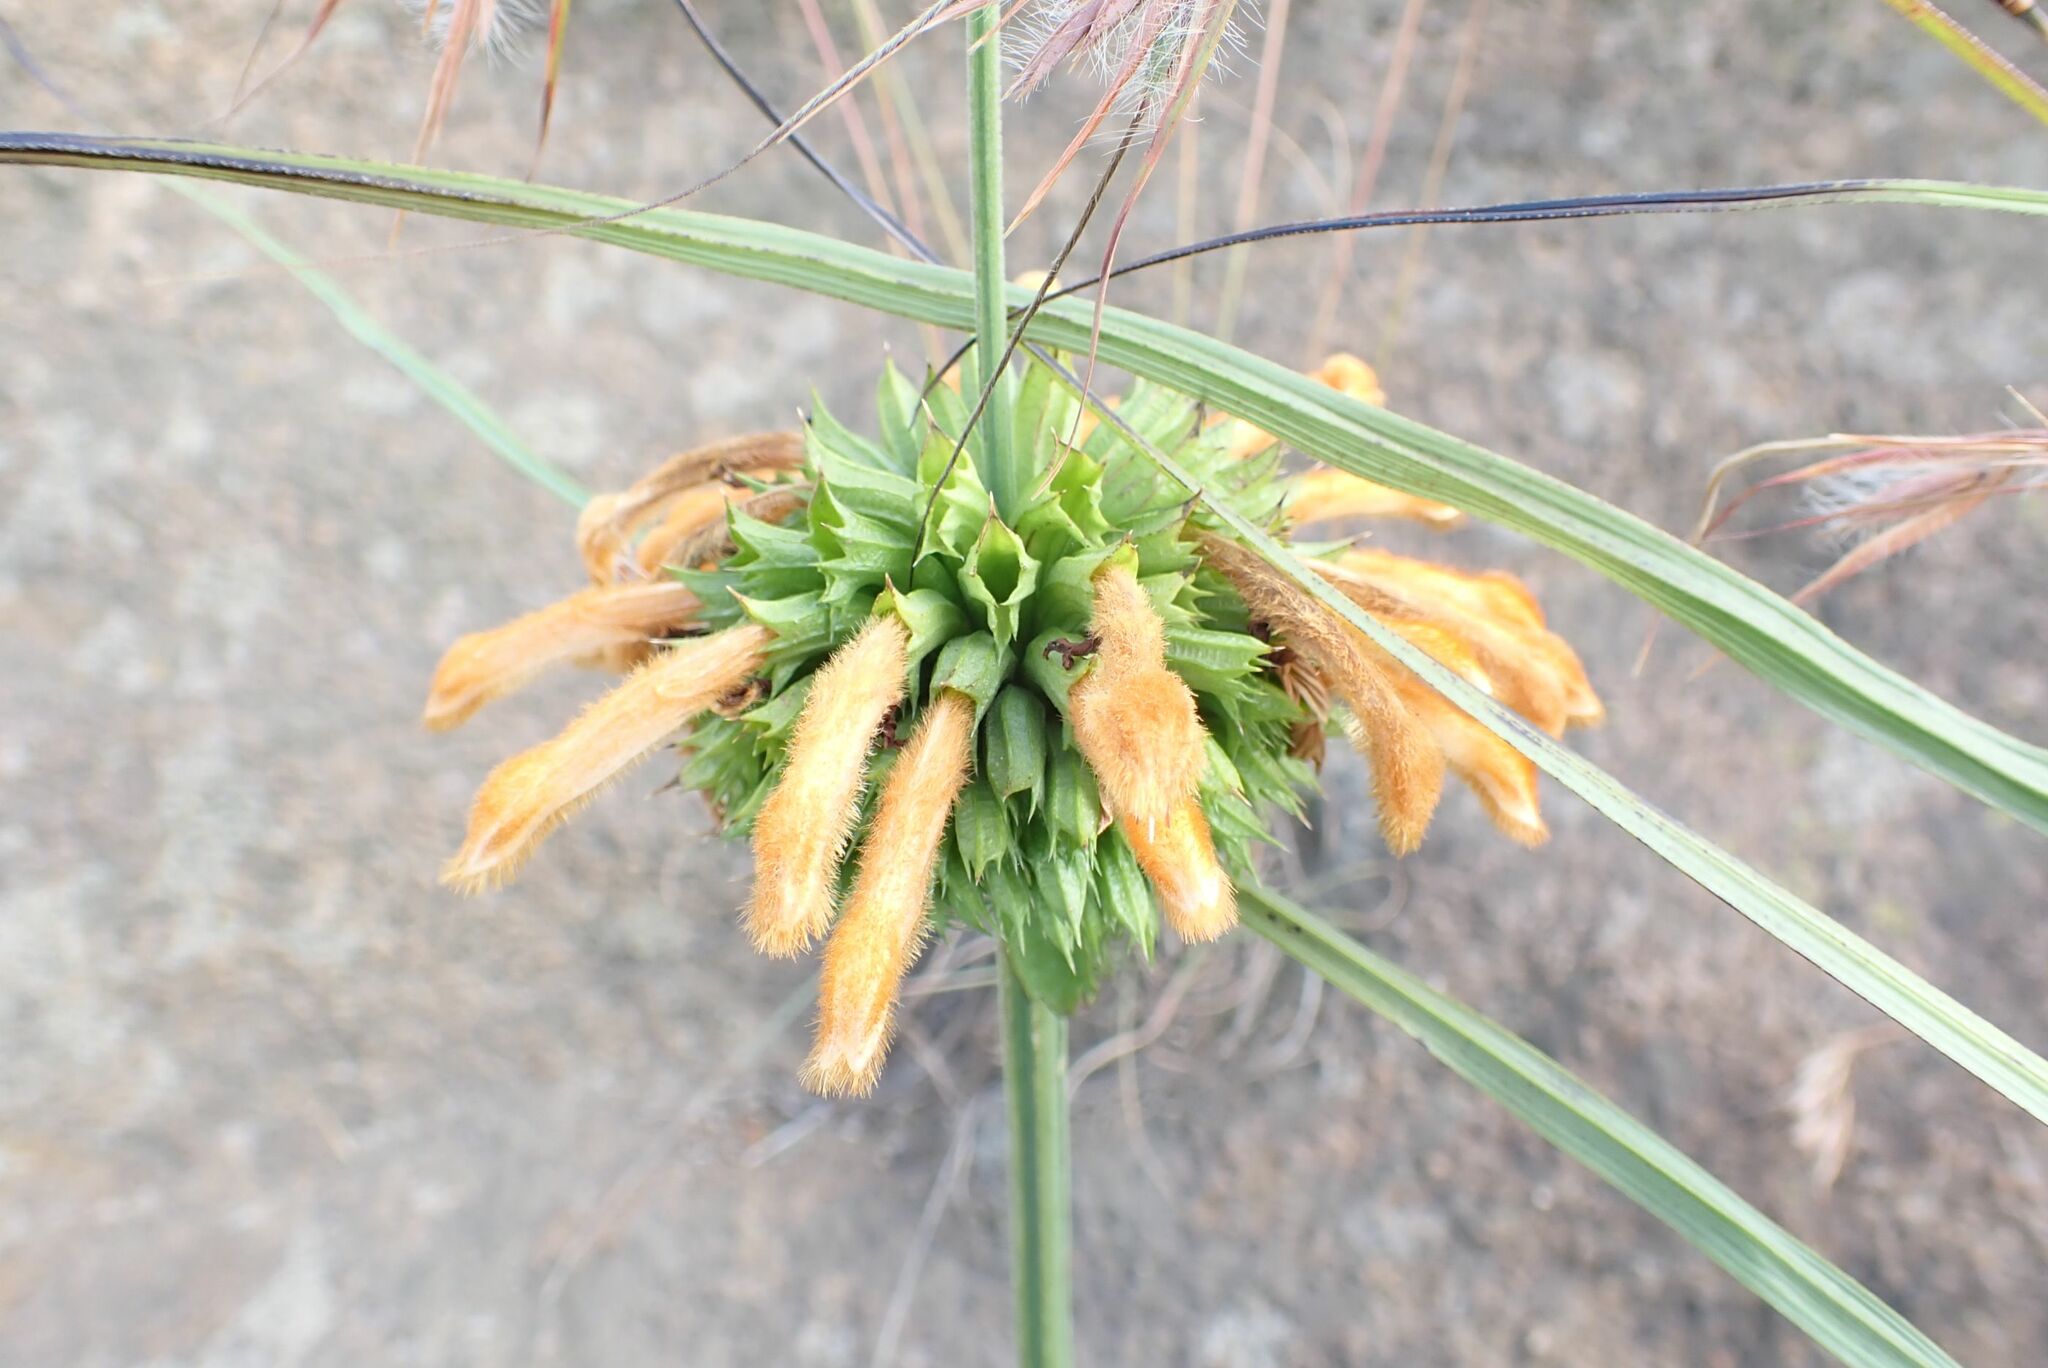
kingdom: Plantae
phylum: Tracheophyta
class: Magnoliopsida
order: Lamiales
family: Lamiaceae
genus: Leonotis
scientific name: Leonotis ocymifolia
